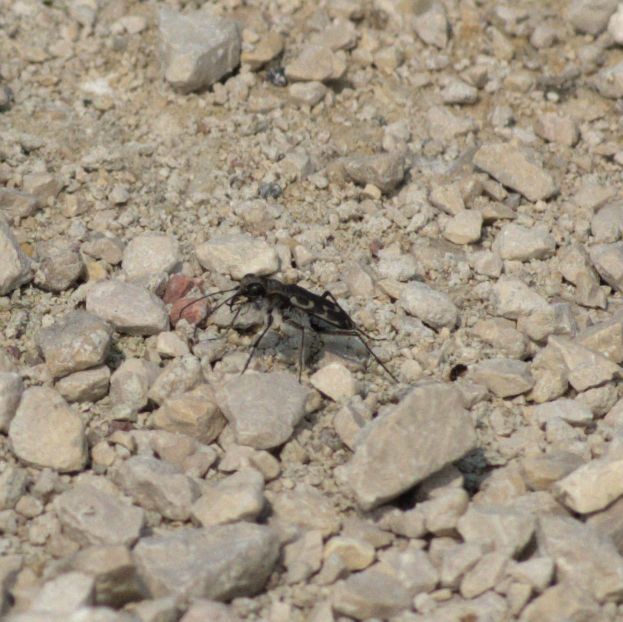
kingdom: Animalia
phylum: Arthropoda
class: Insecta
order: Coleoptera
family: Carabidae
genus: Cicindela
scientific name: Cicindela duodecimguttata
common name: Twelve-spotted tiger beetle
